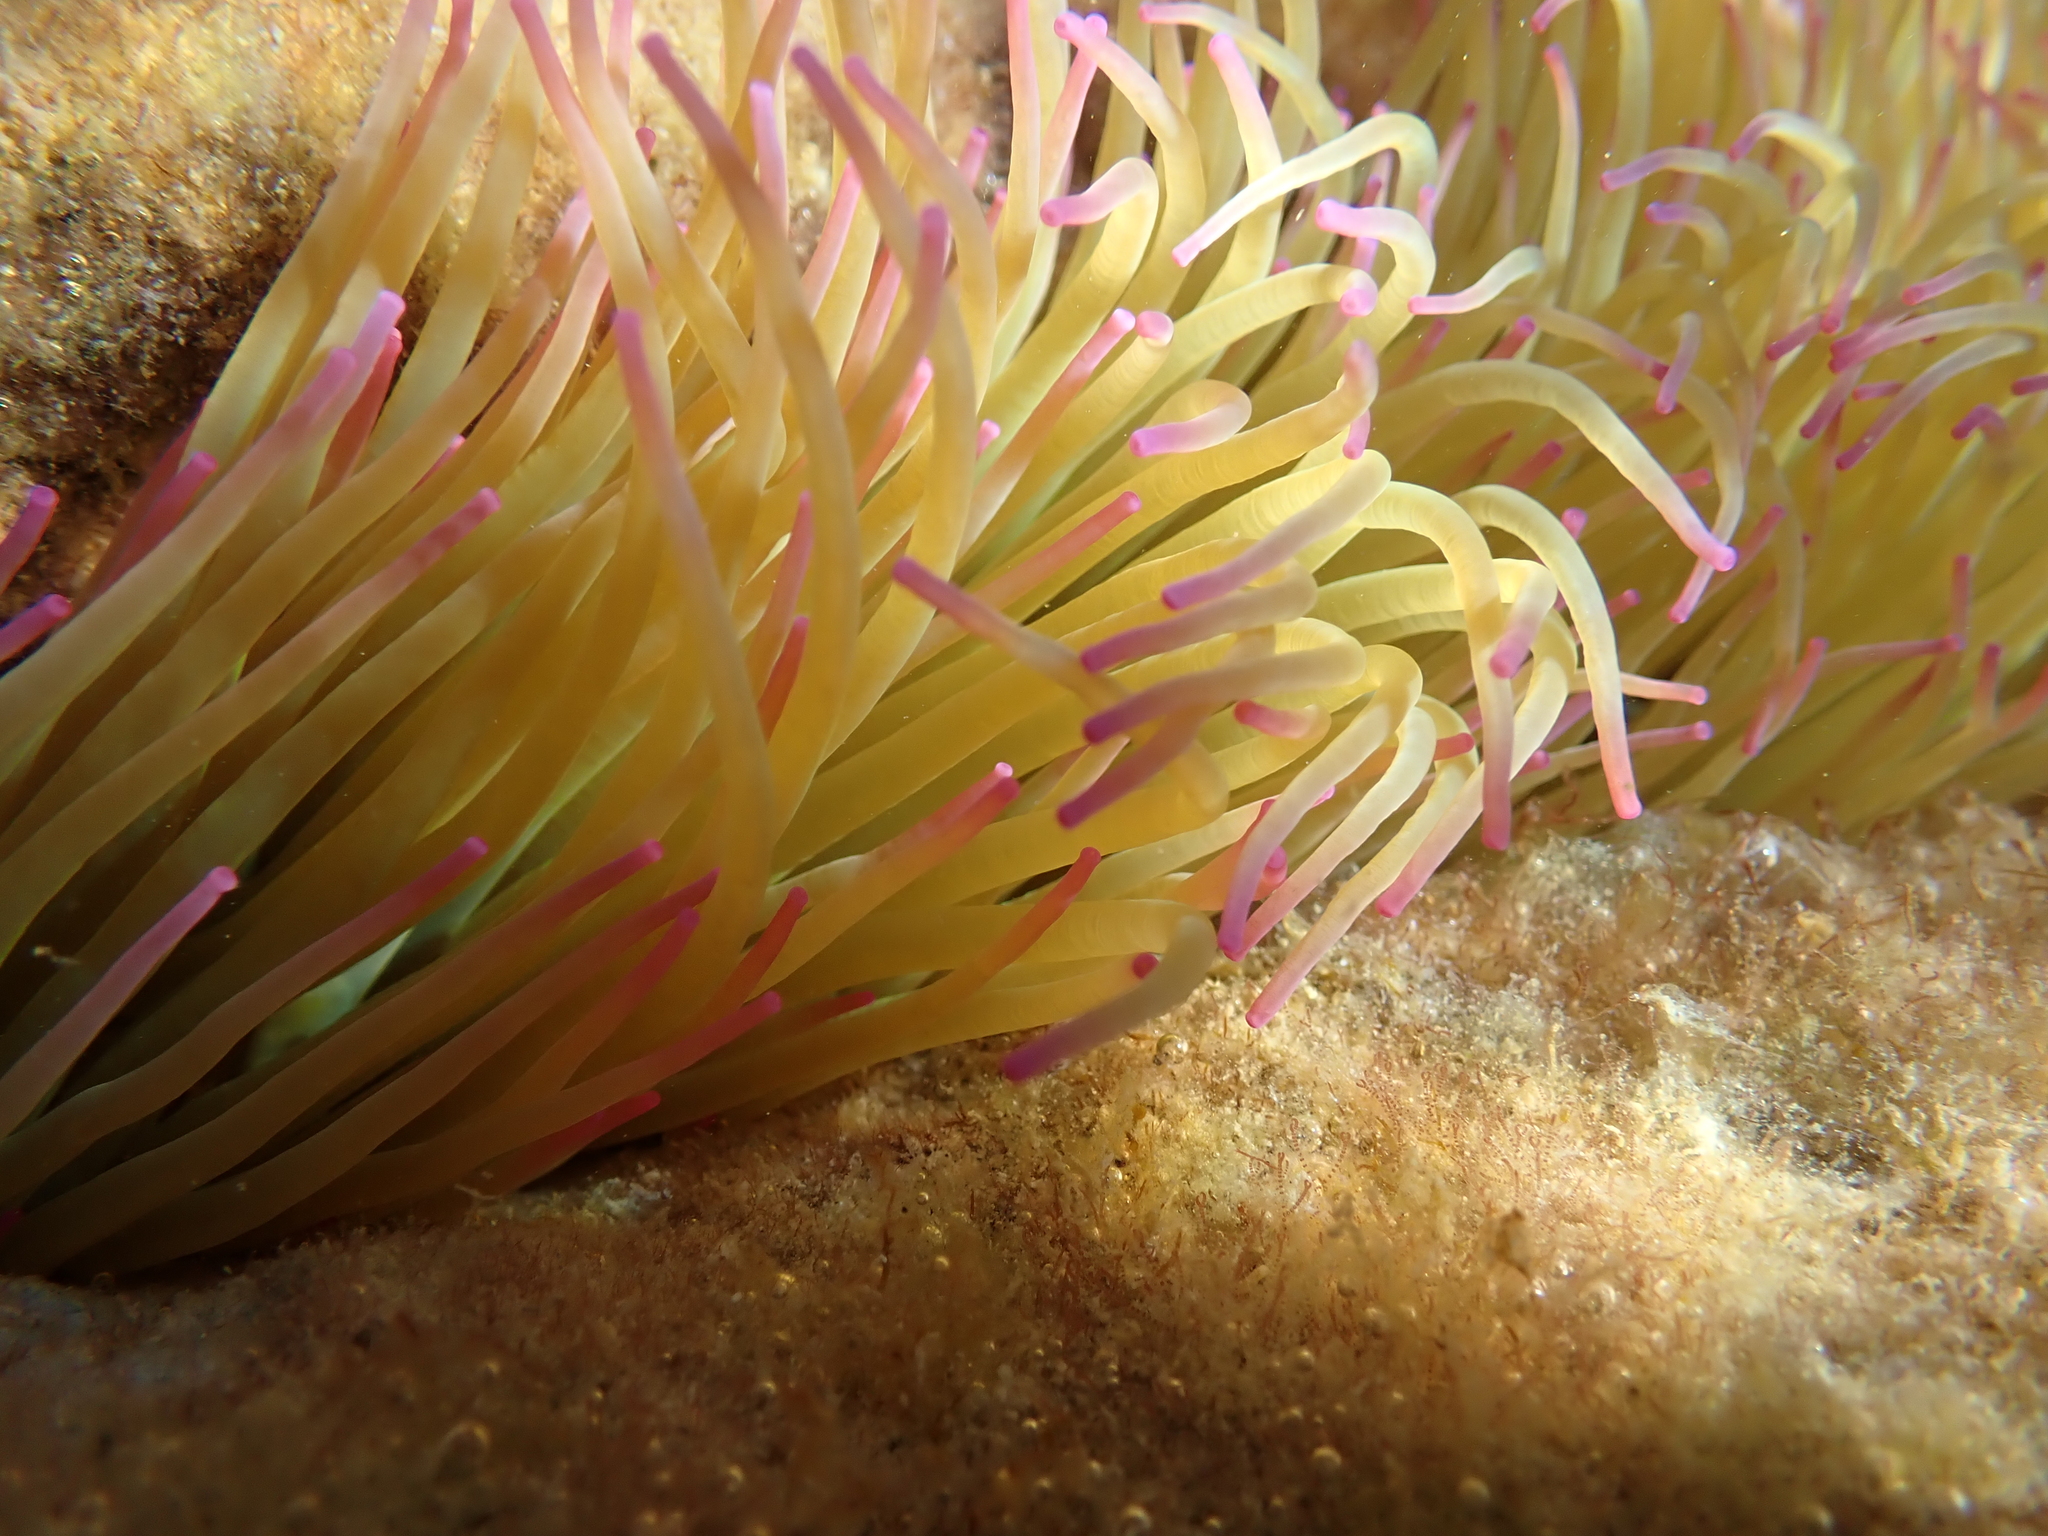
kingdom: Animalia
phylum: Cnidaria
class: Anthozoa
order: Actiniaria
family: Actiniidae
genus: Anemonia
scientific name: Anemonia viridis
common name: Snakelocks anemone
